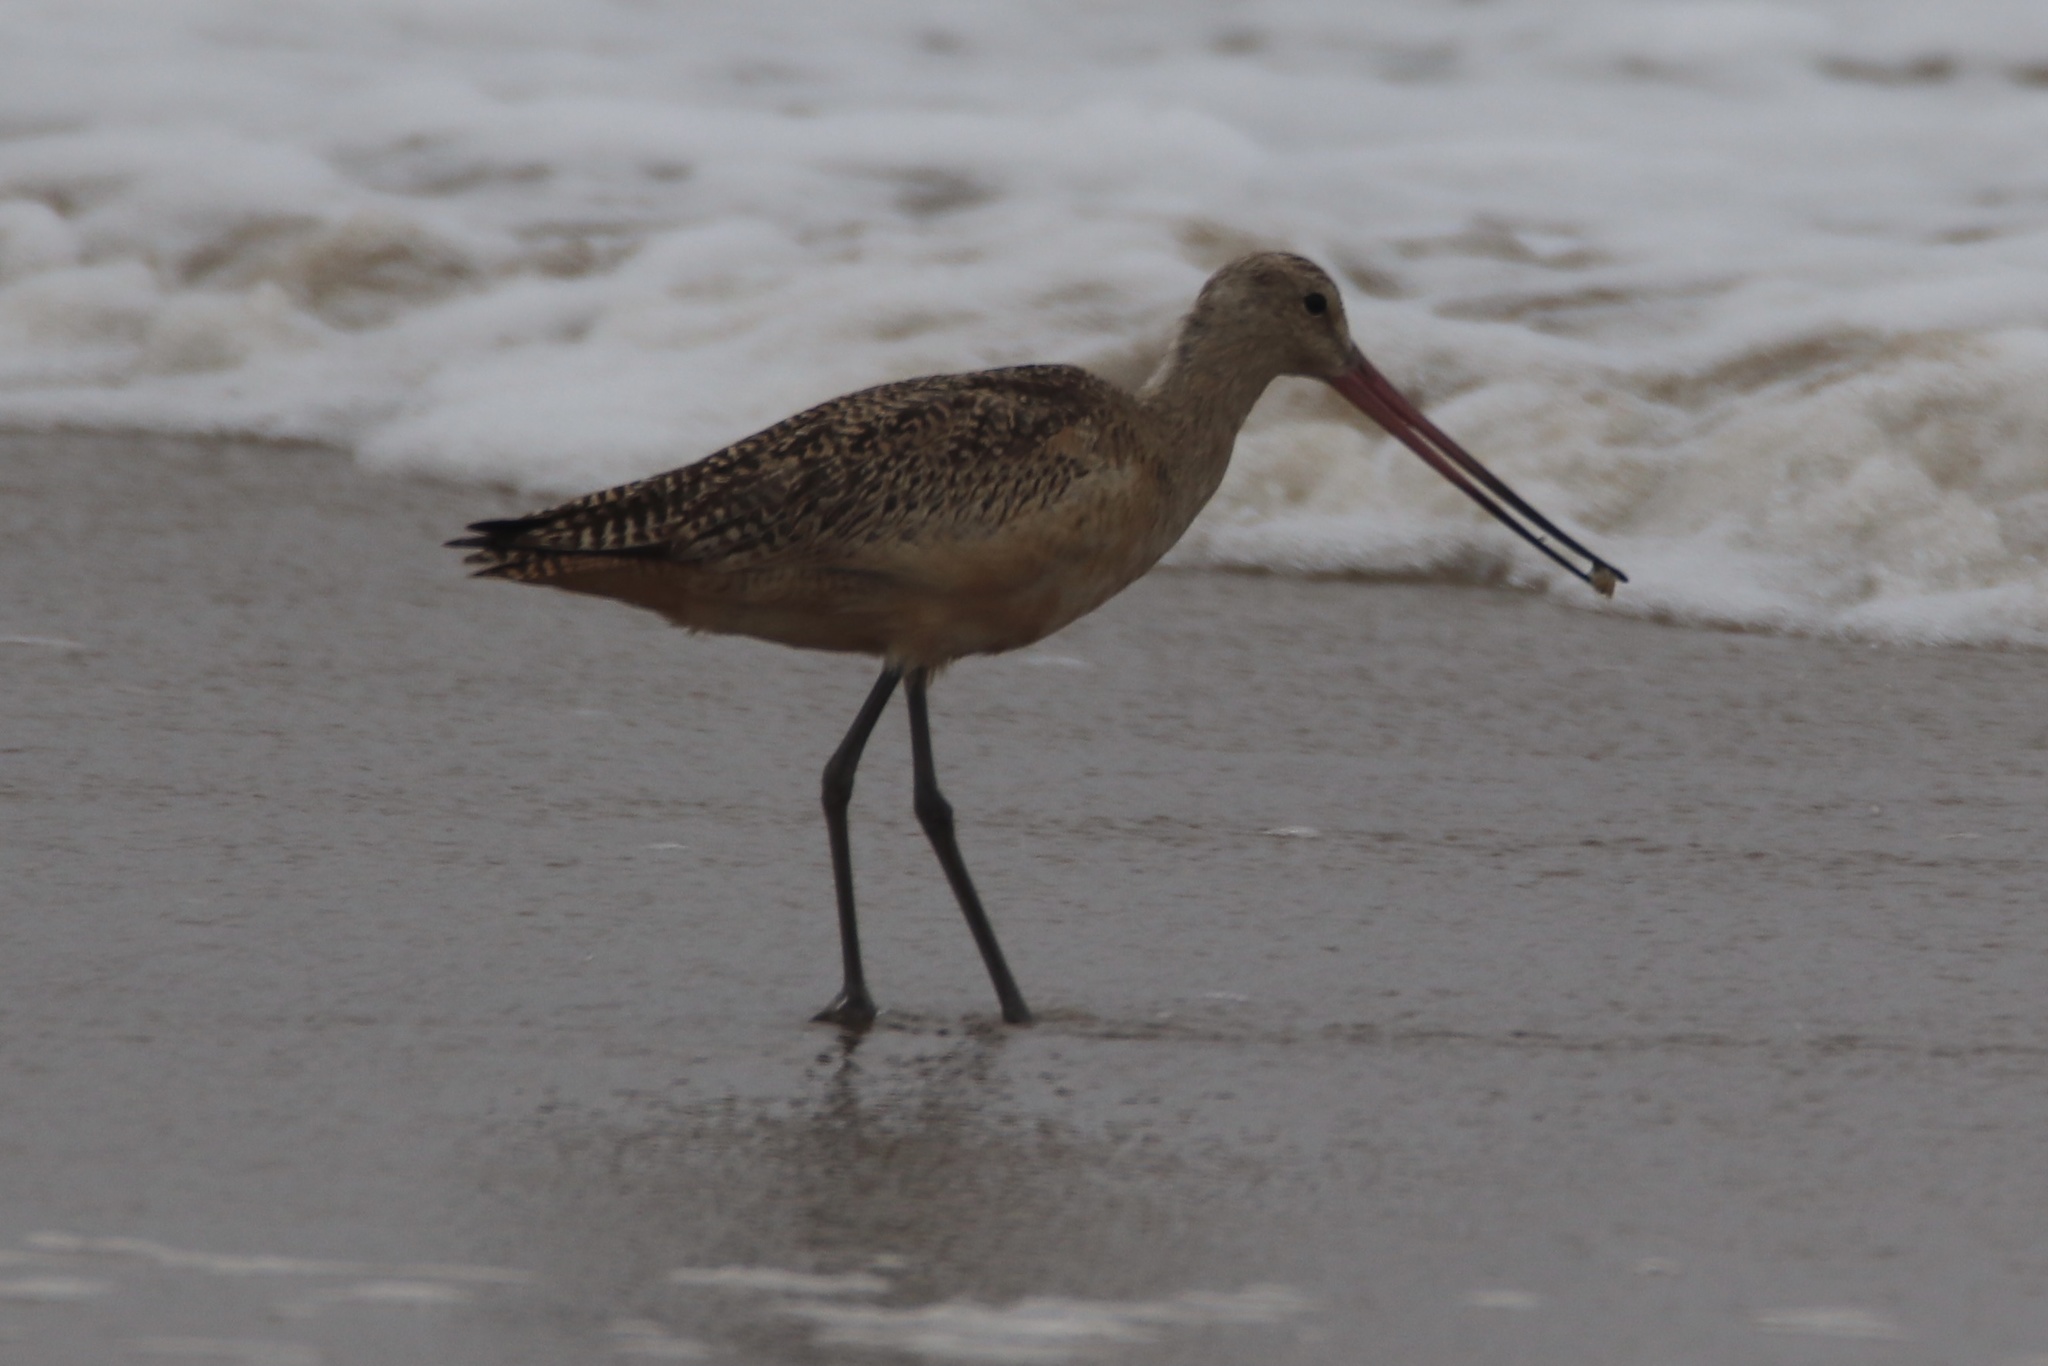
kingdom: Animalia
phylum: Chordata
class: Aves
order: Charadriiformes
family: Scolopacidae
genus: Limosa
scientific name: Limosa fedoa
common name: Marbled godwit
